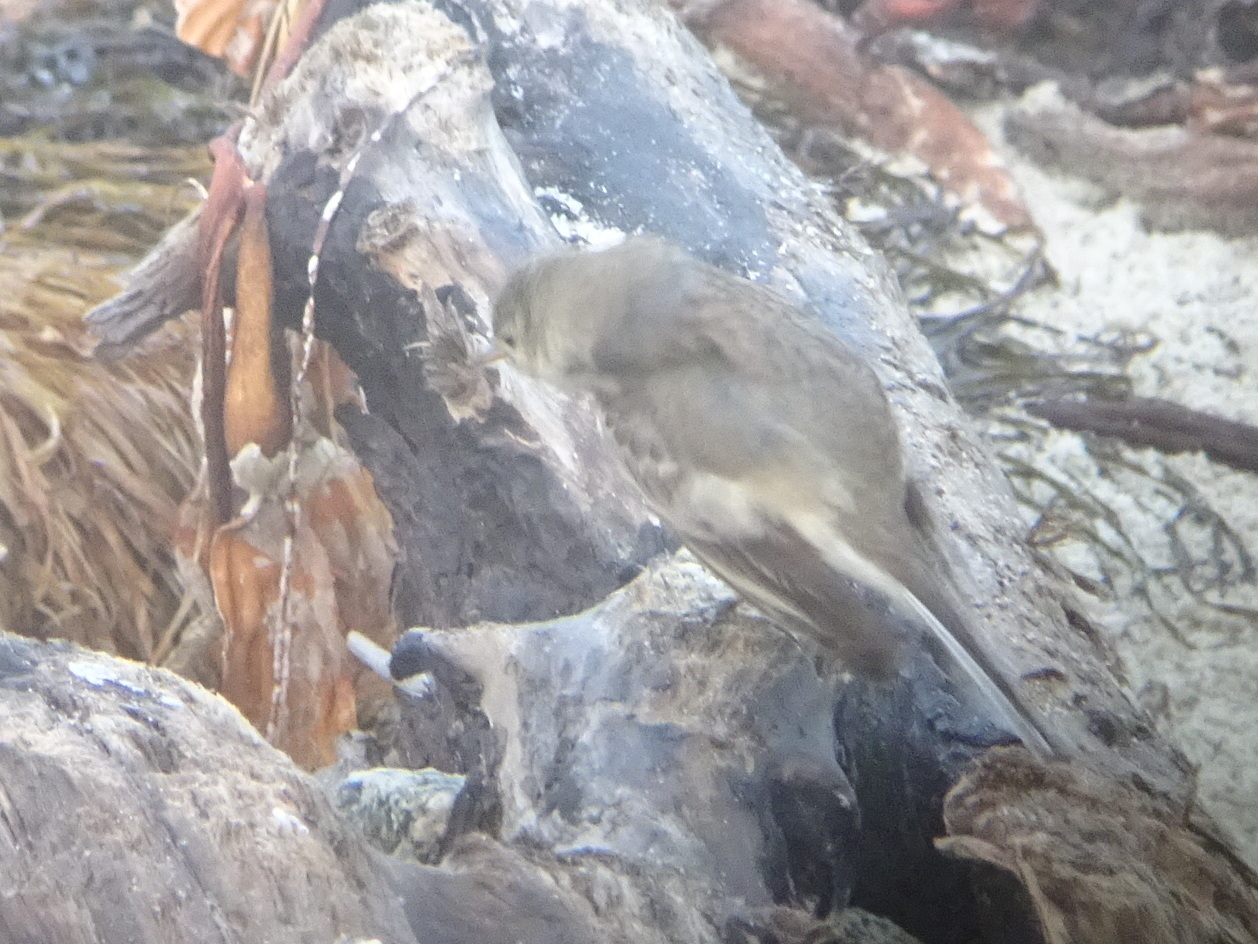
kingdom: Animalia
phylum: Chordata
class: Aves
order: Passeriformes
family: Motacillidae
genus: Anthus
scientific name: Anthus rubescens
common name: Buff-bellied pipit
